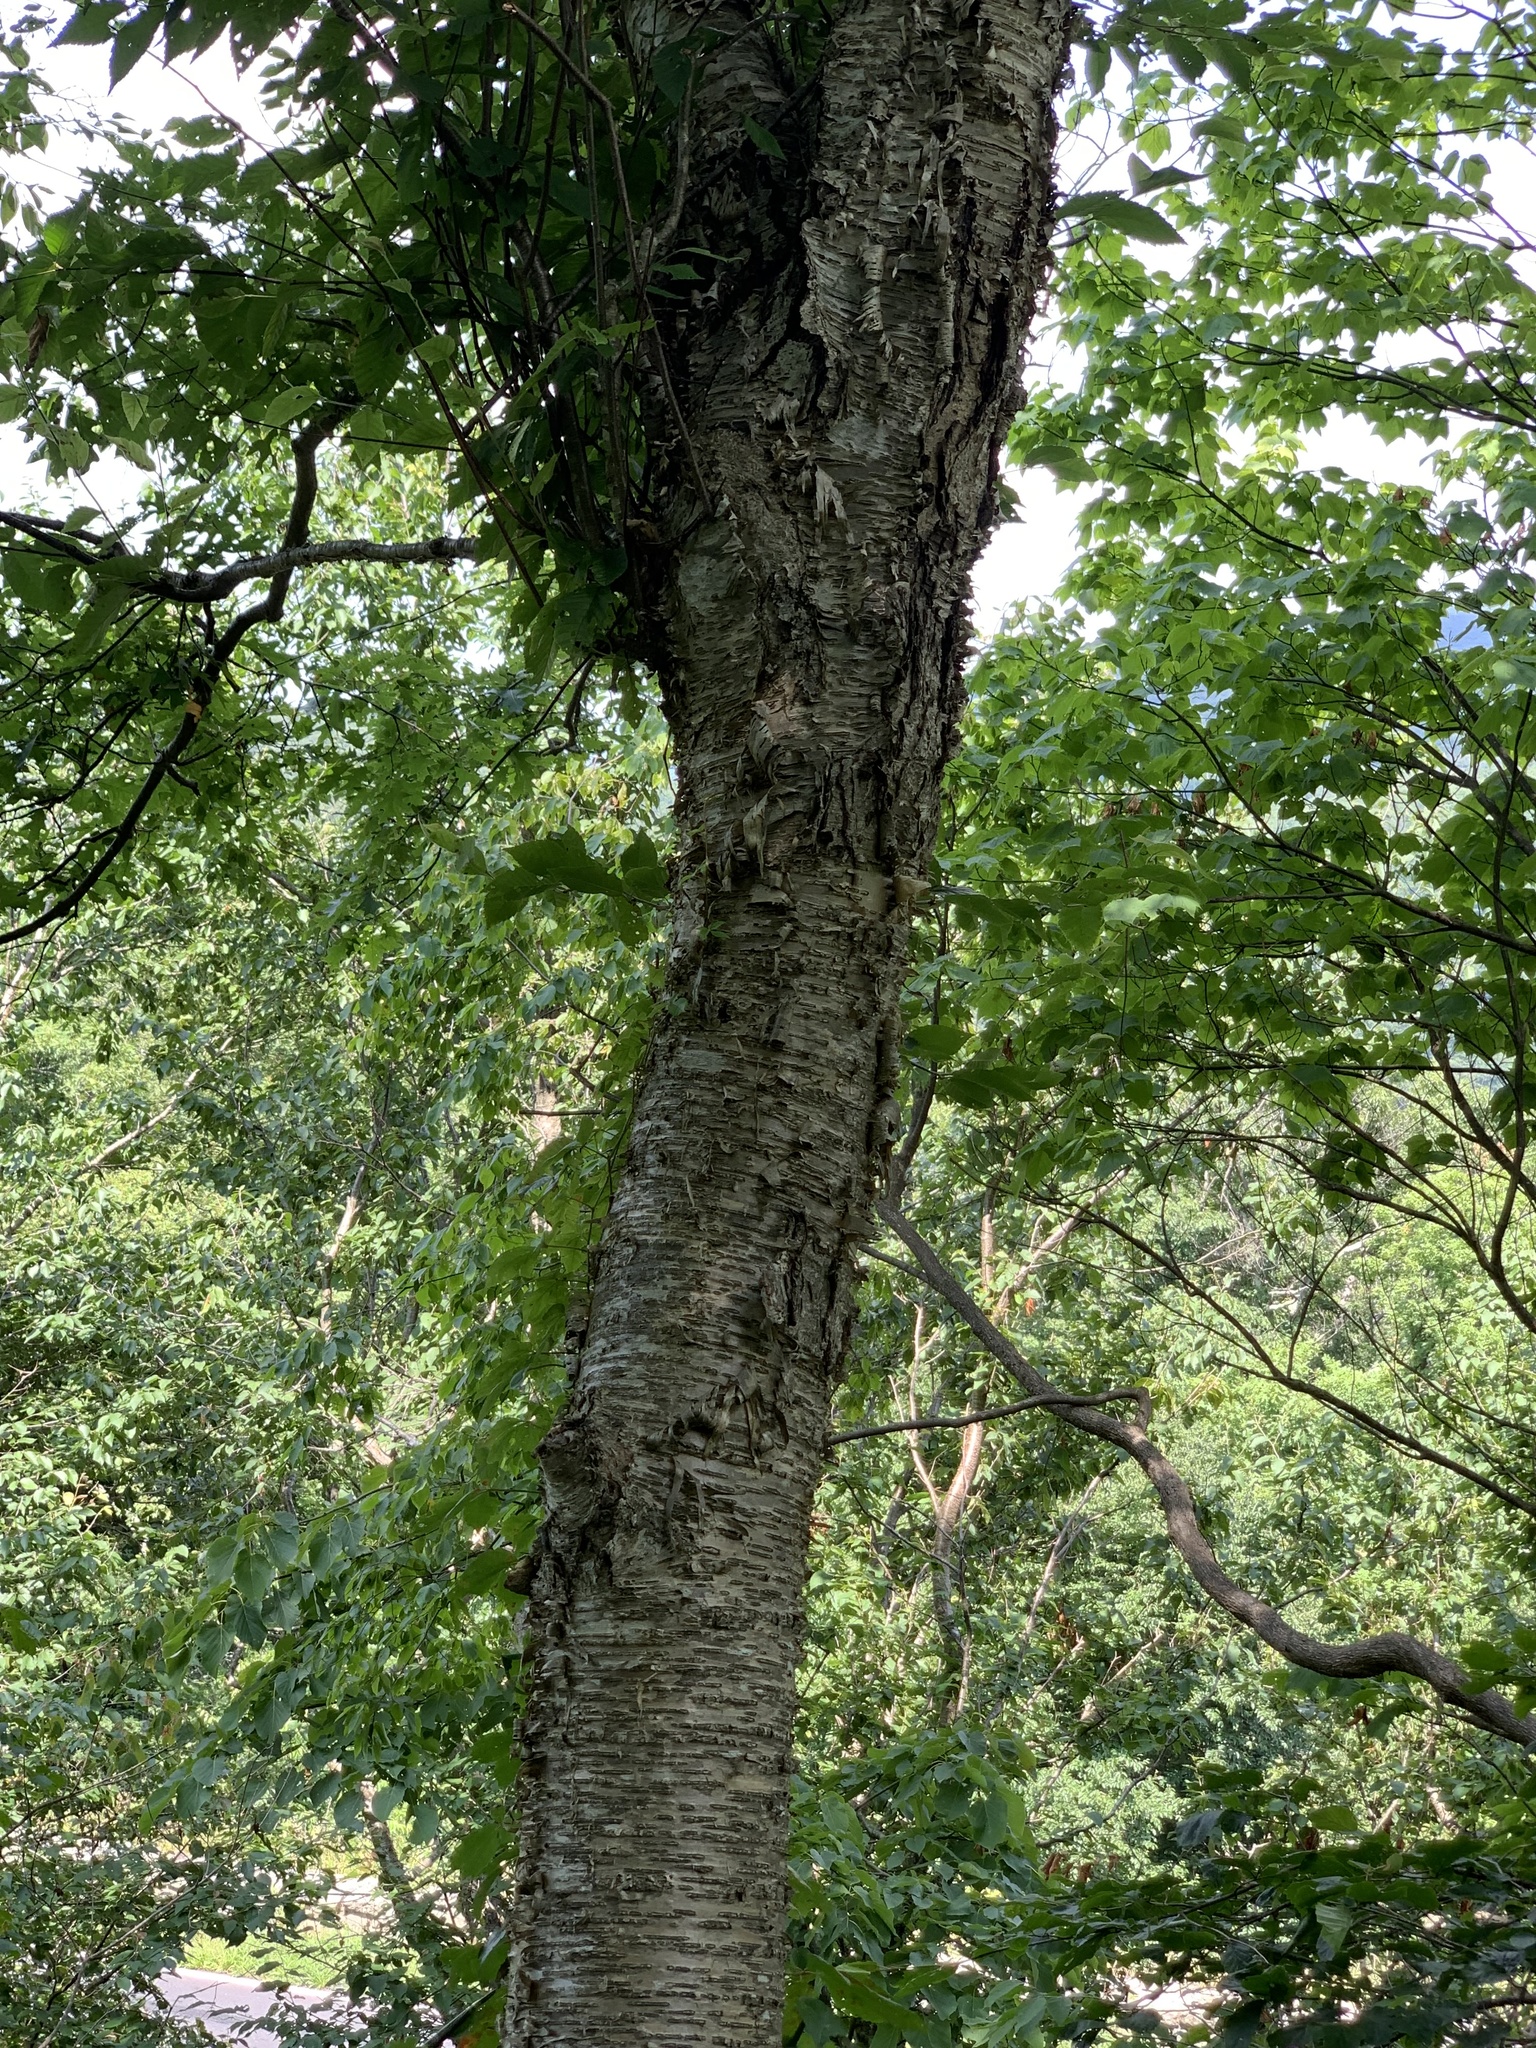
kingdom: Plantae
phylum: Tracheophyta
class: Magnoliopsida
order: Fagales
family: Betulaceae
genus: Betula
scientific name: Betula alleghaniensis
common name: Yellow birch
